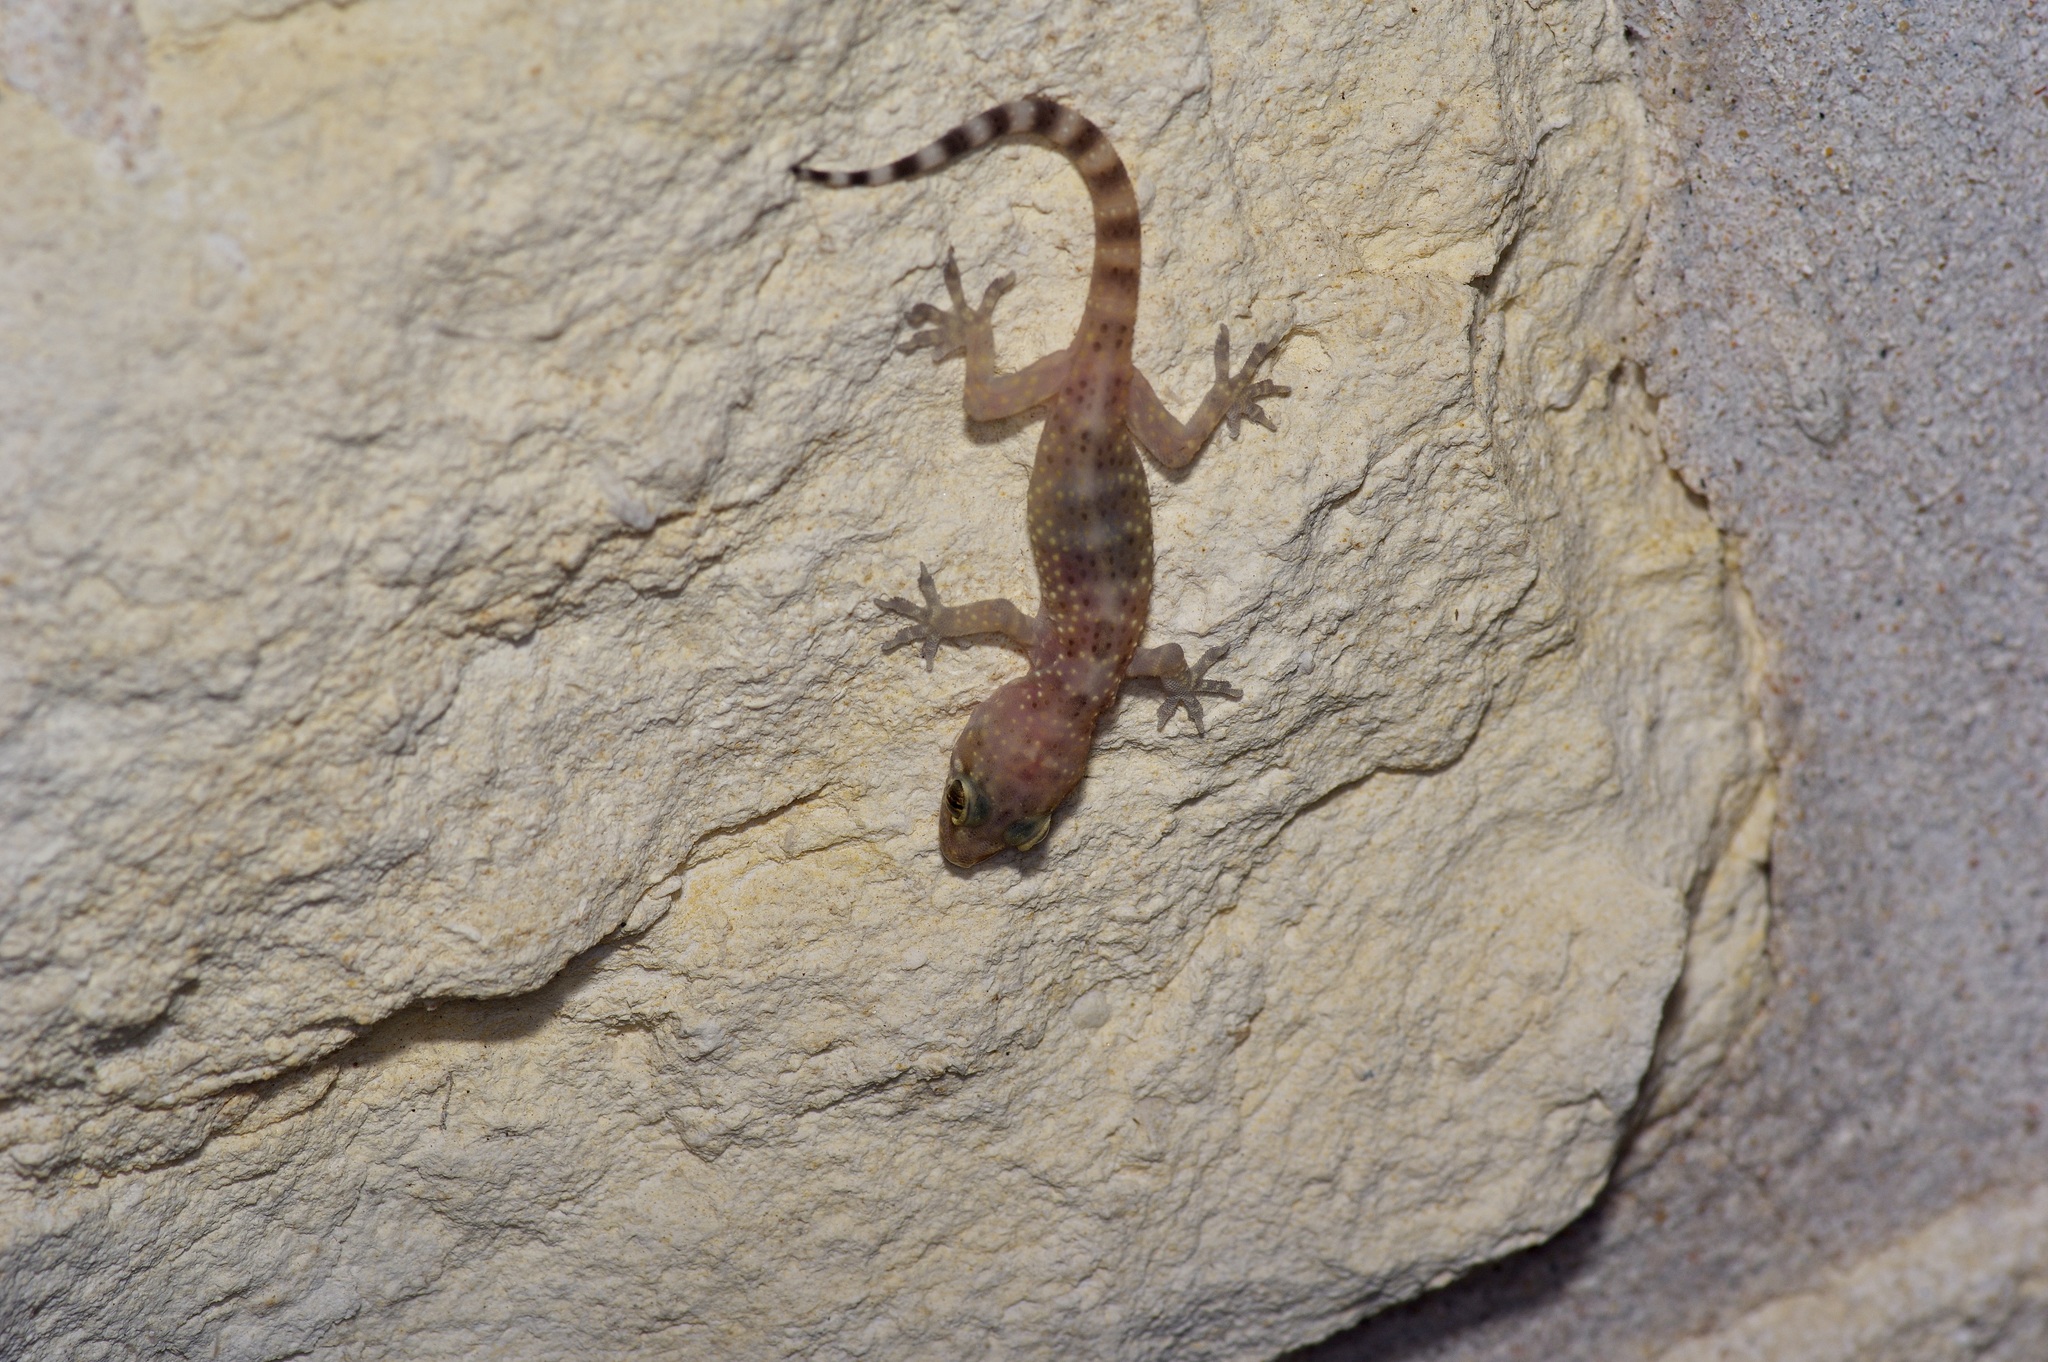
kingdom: Animalia
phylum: Chordata
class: Squamata
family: Gekkonidae
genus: Hemidactylus
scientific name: Hemidactylus turcicus
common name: Turkish gecko
